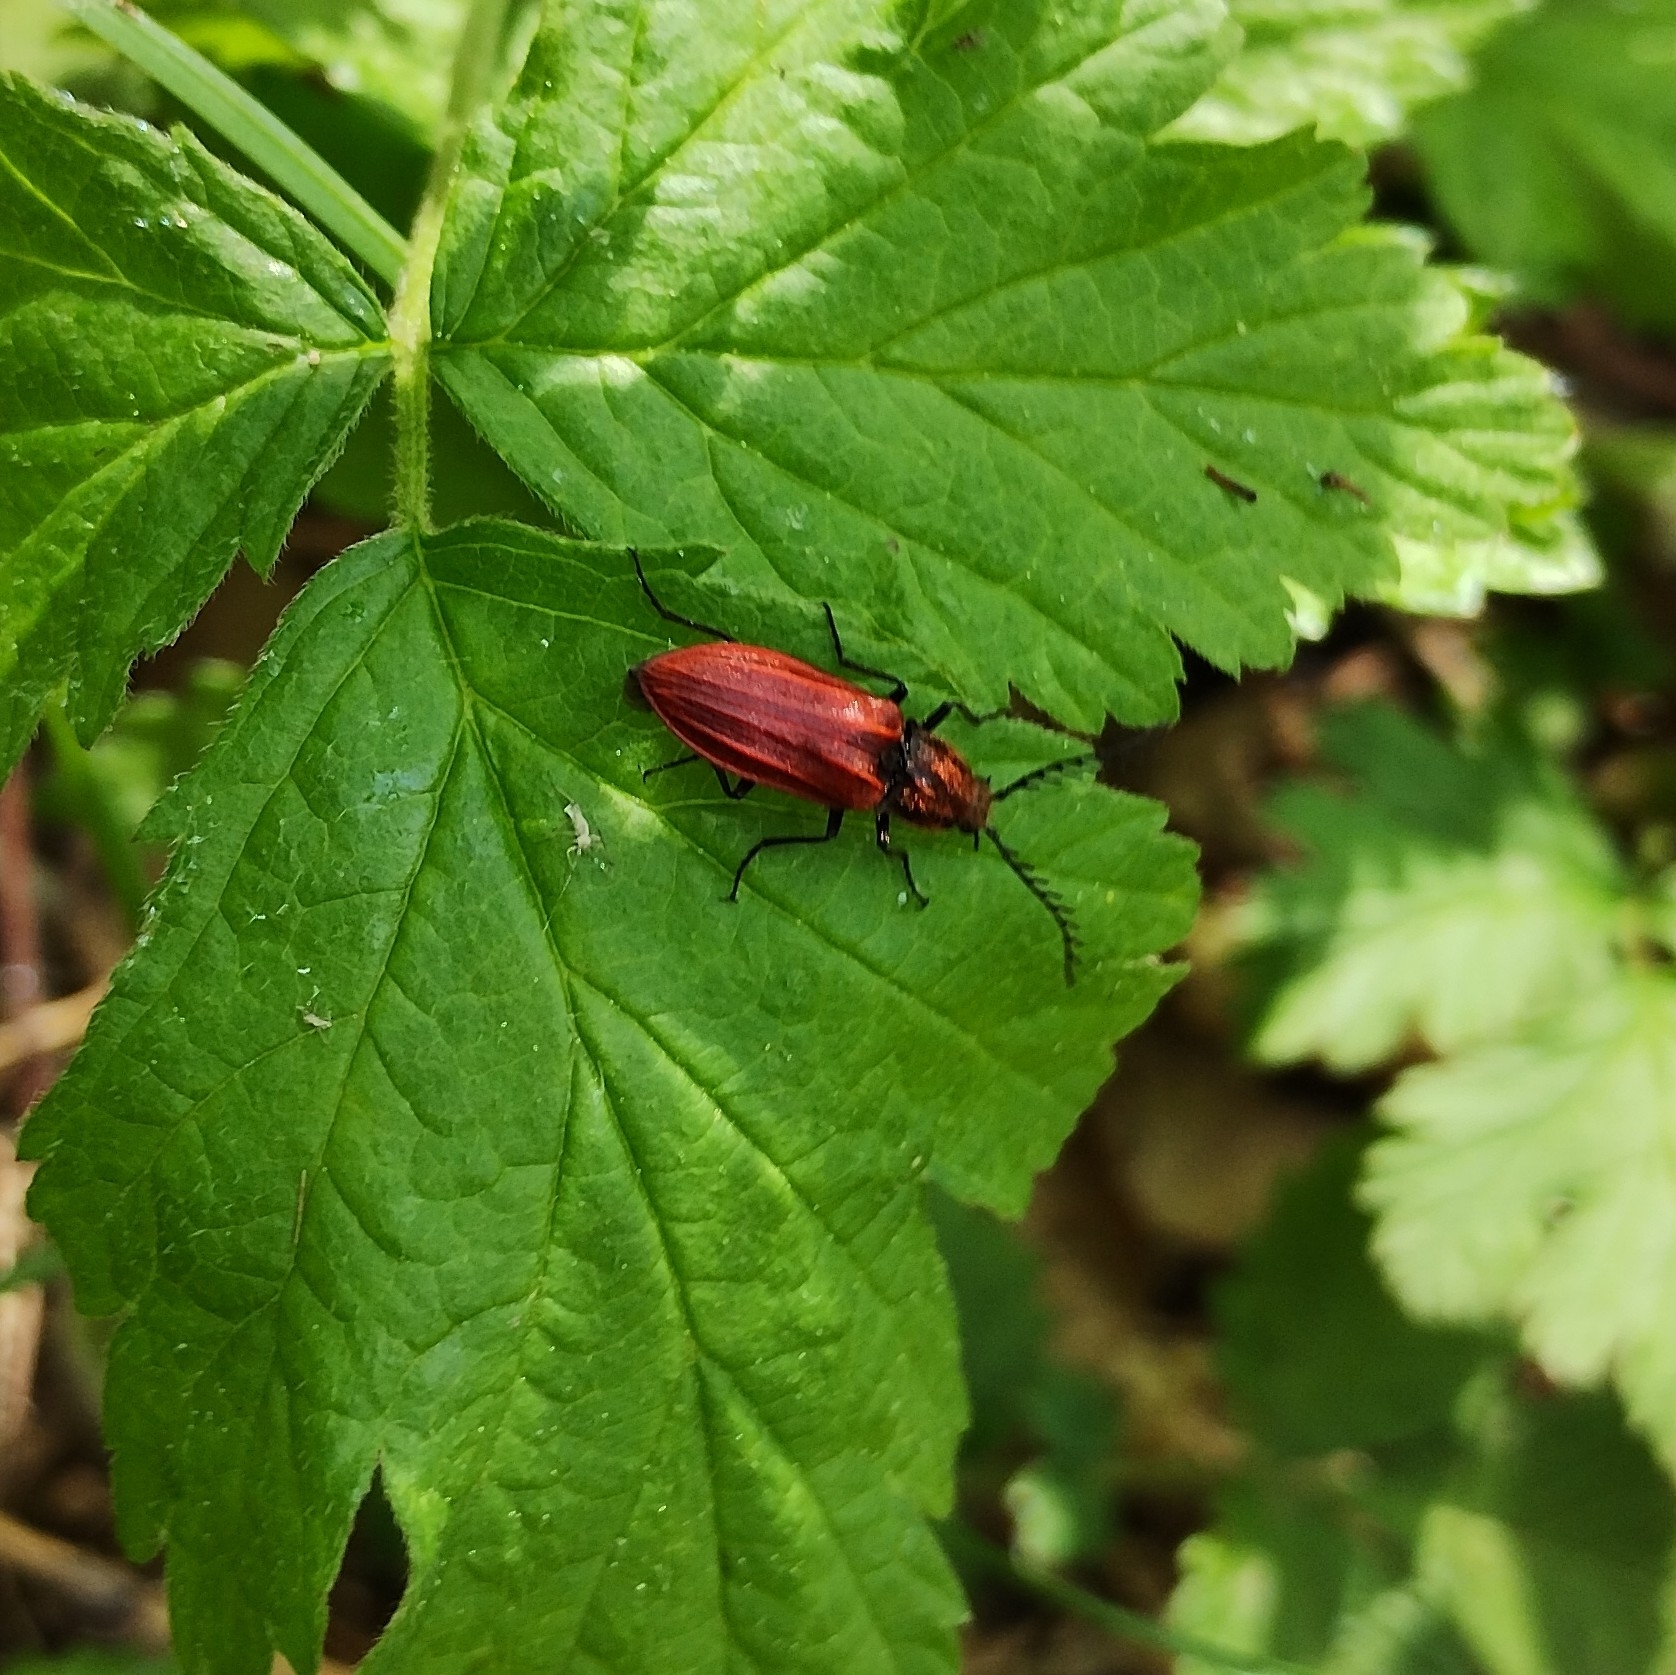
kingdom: Animalia
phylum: Arthropoda
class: Insecta
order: Coleoptera
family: Elateridae
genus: Anostirus
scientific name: Anostirus purpureus
